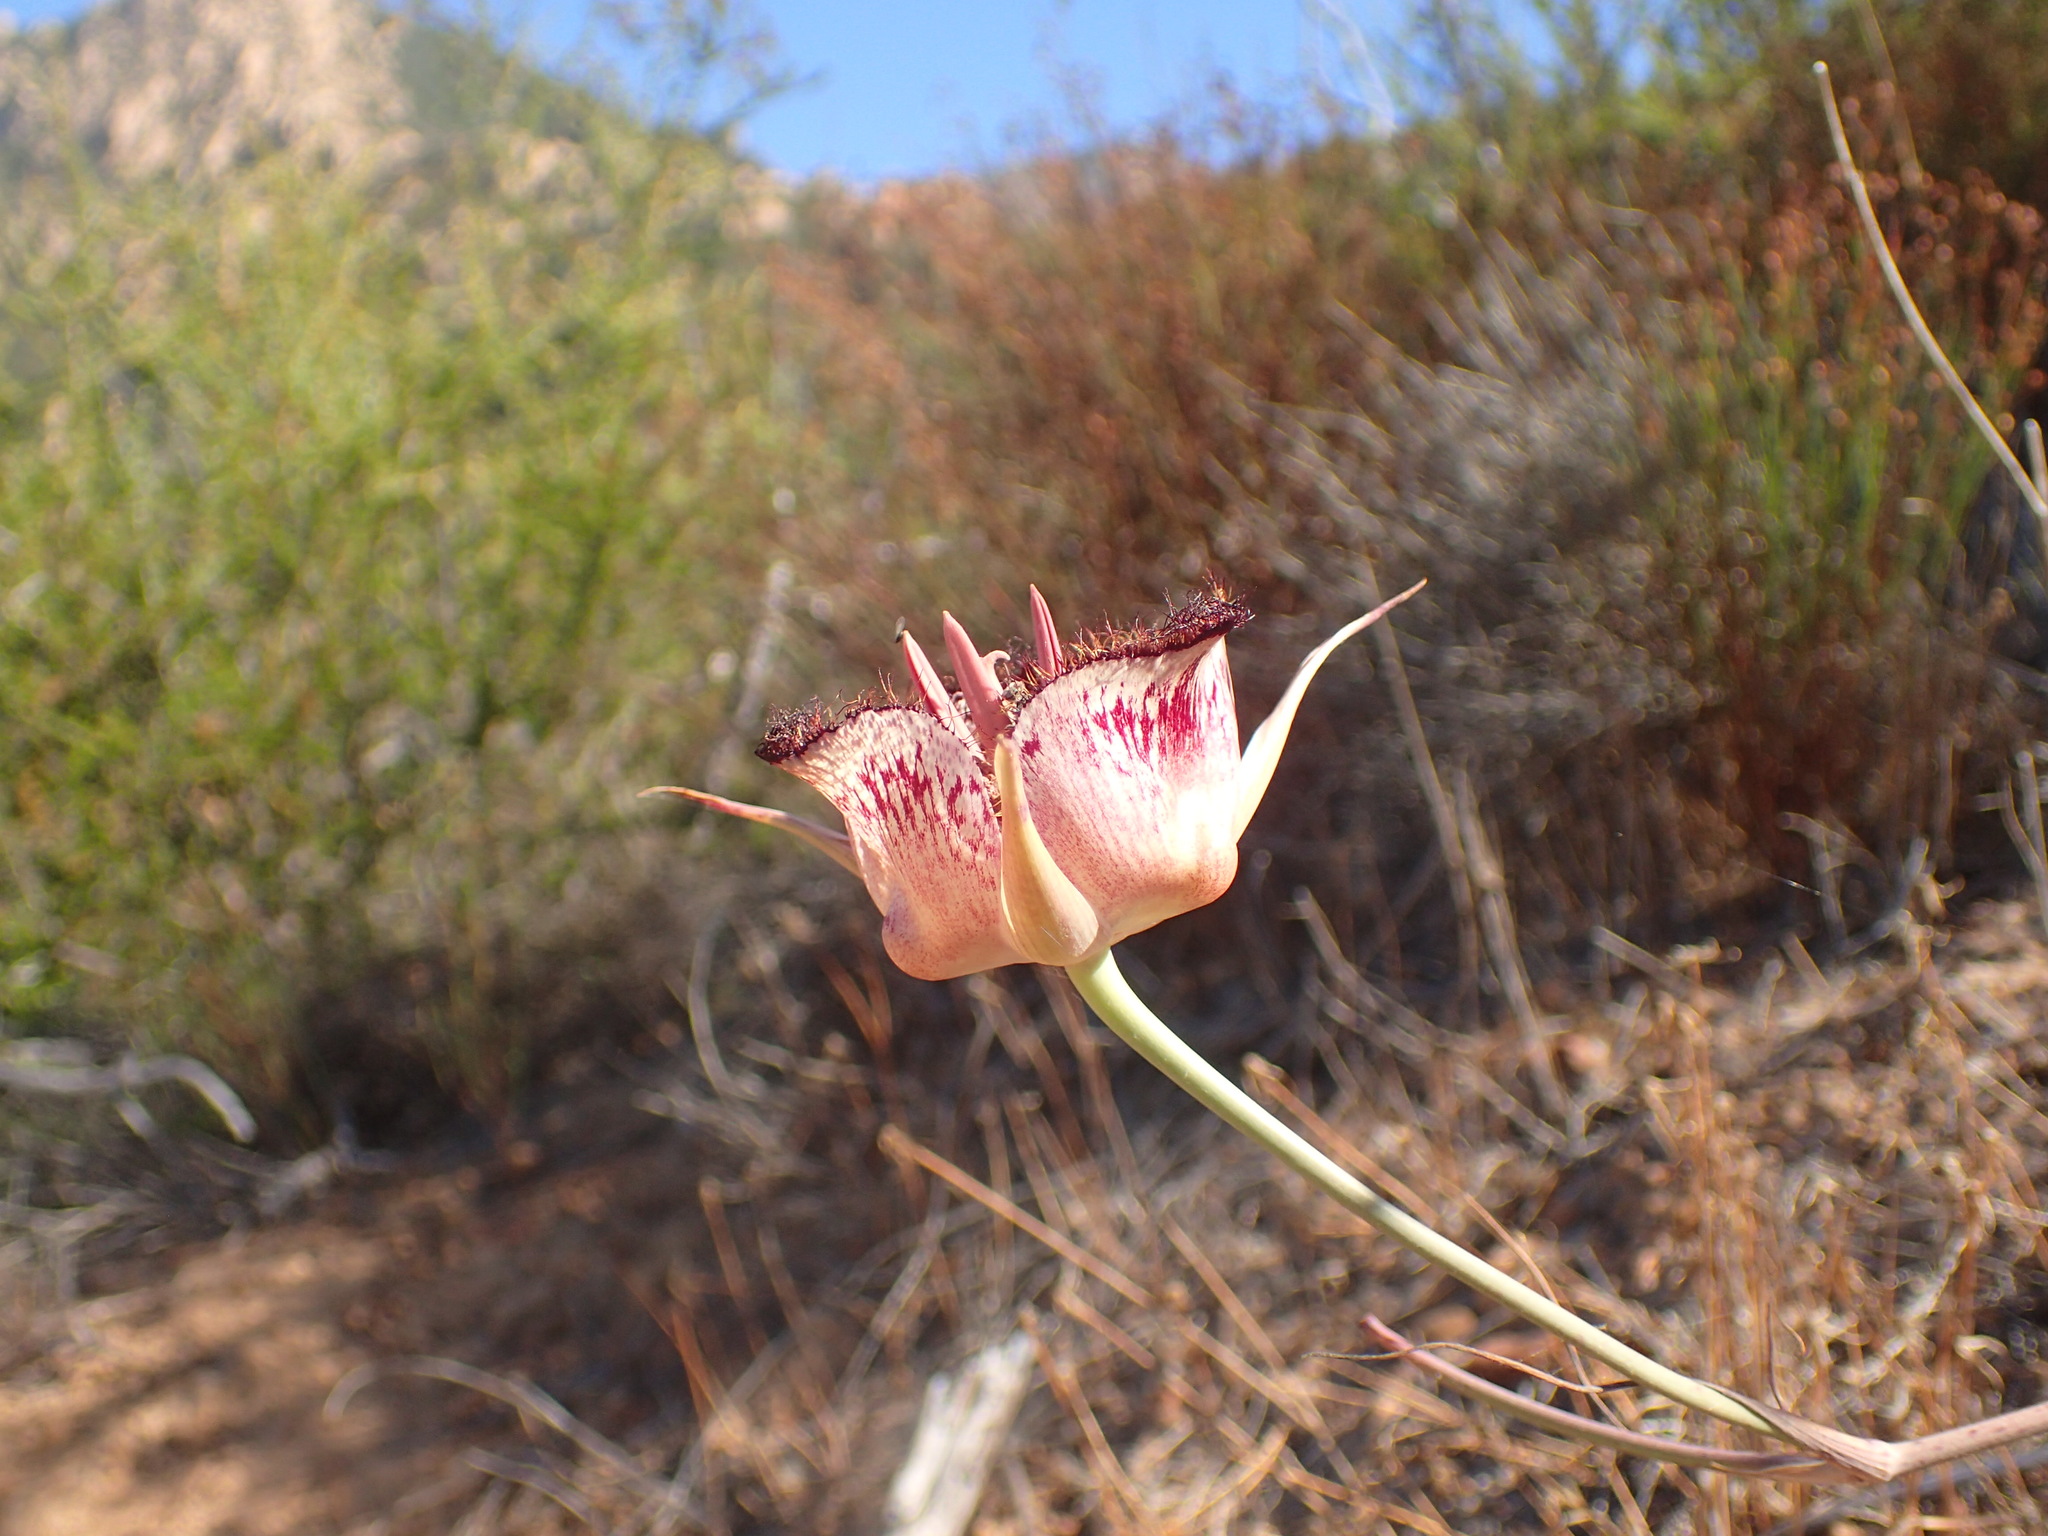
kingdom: Plantae
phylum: Tracheophyta
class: Liliopsida
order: Liliales
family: Liliaceae
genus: Calochortus
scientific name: Calochortus fimbriatus
